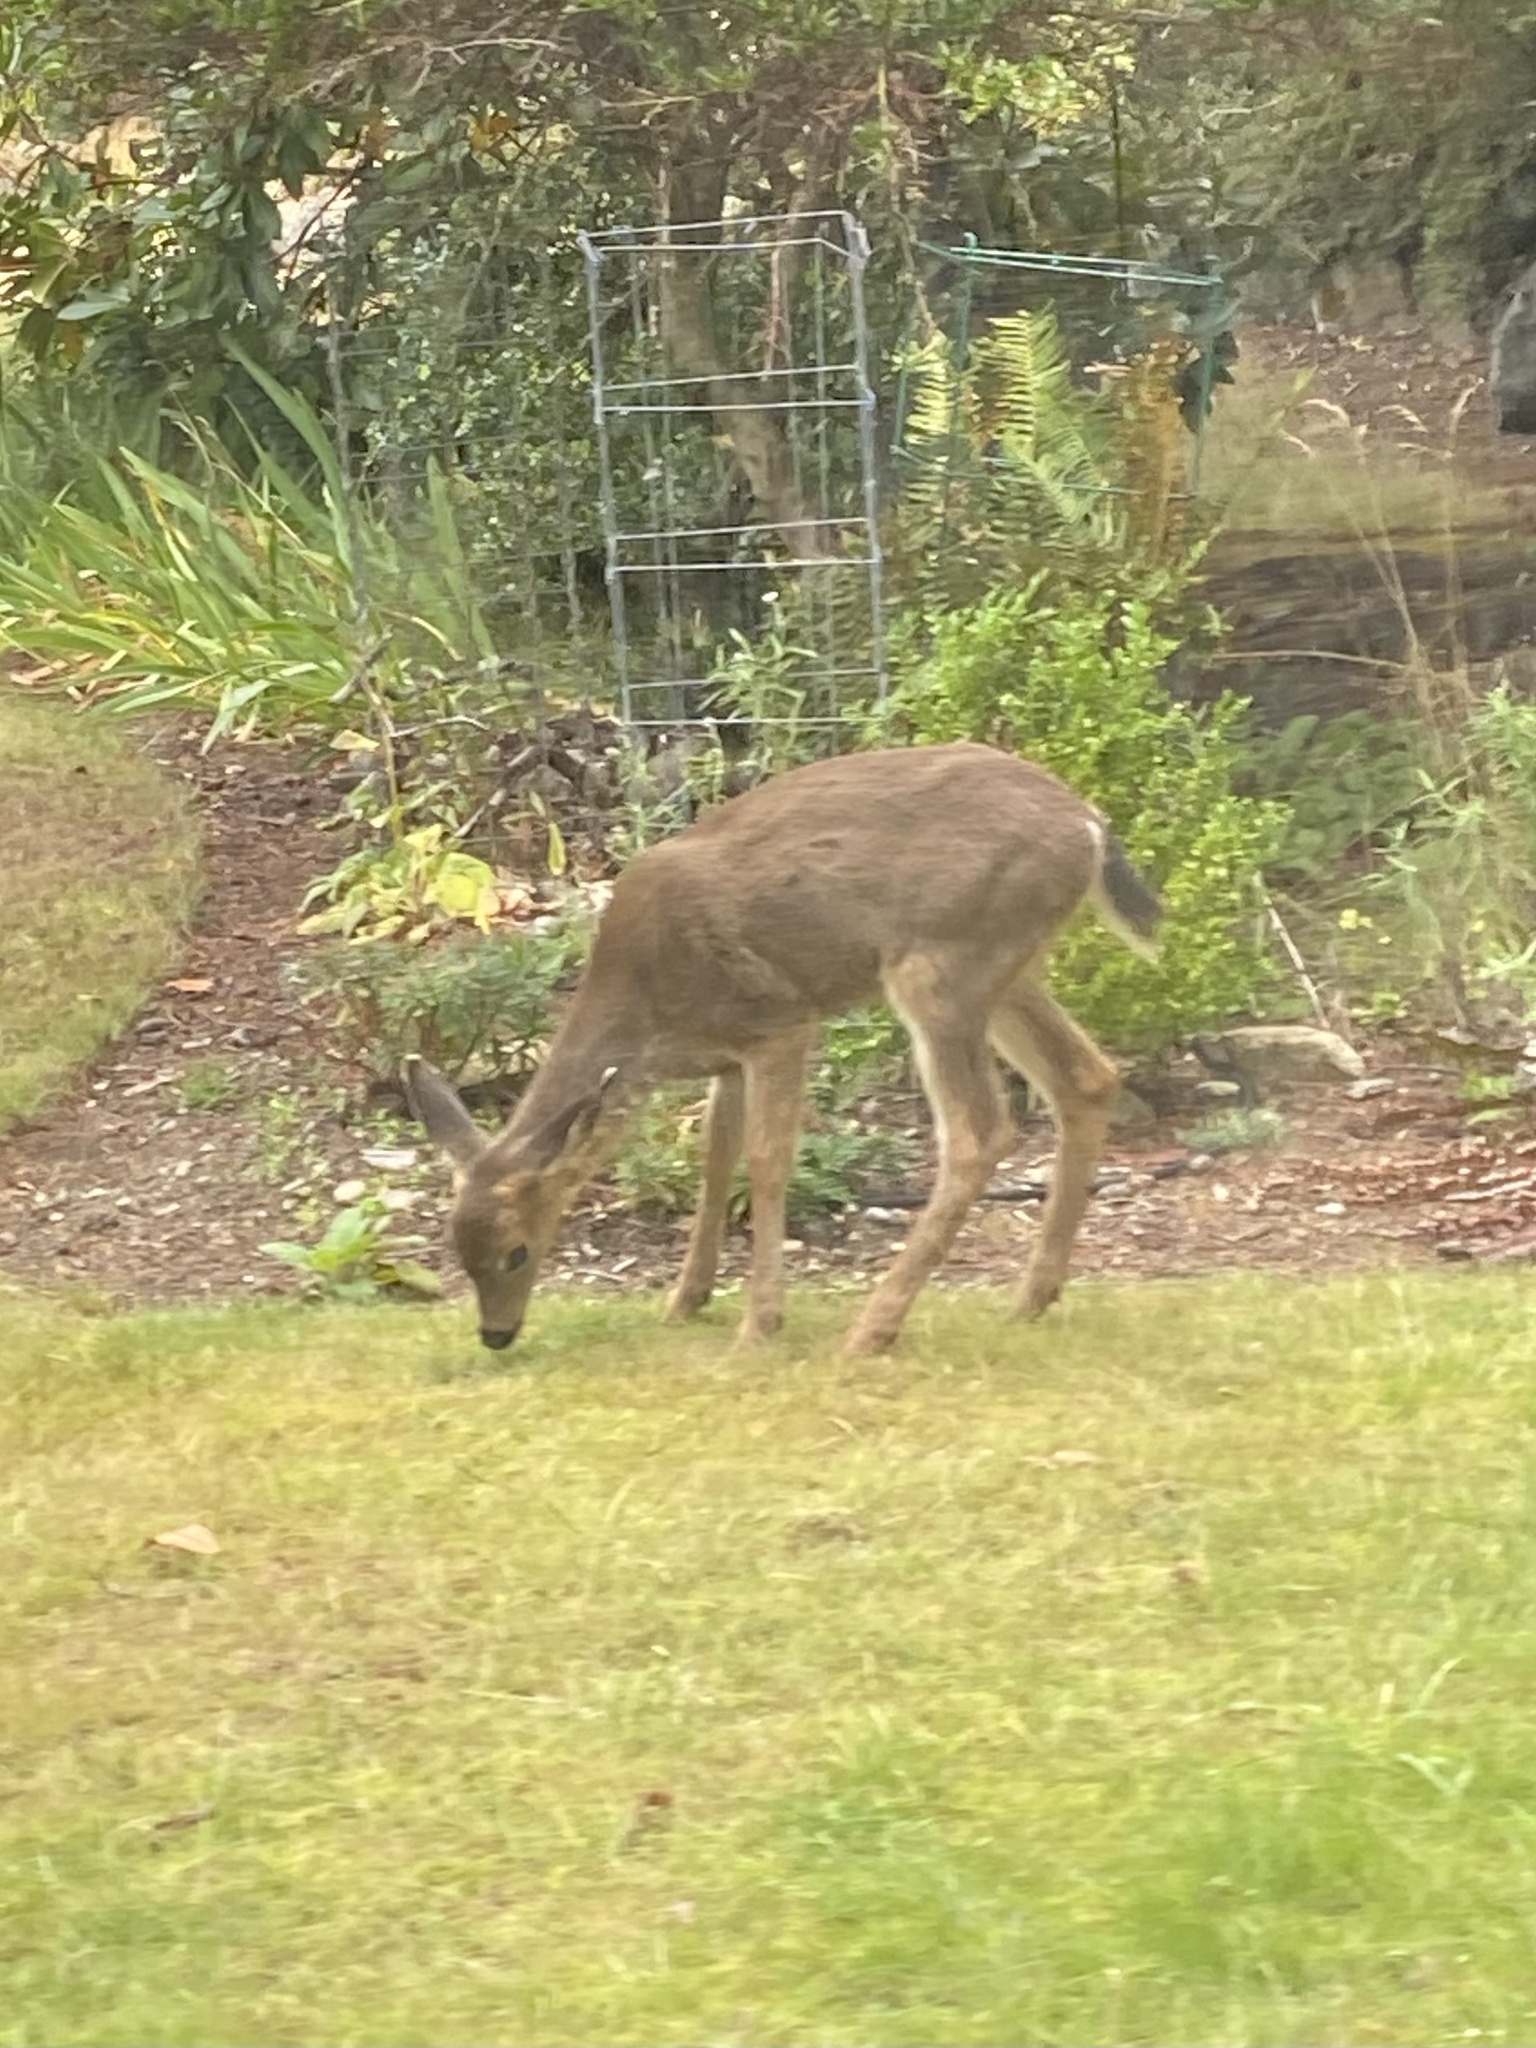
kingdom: Animalia
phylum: Chordata
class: Mammalia
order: Artiodactyla
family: Cervidae
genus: Odocoileus
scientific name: Odocoileus hemionus
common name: Mule deer
